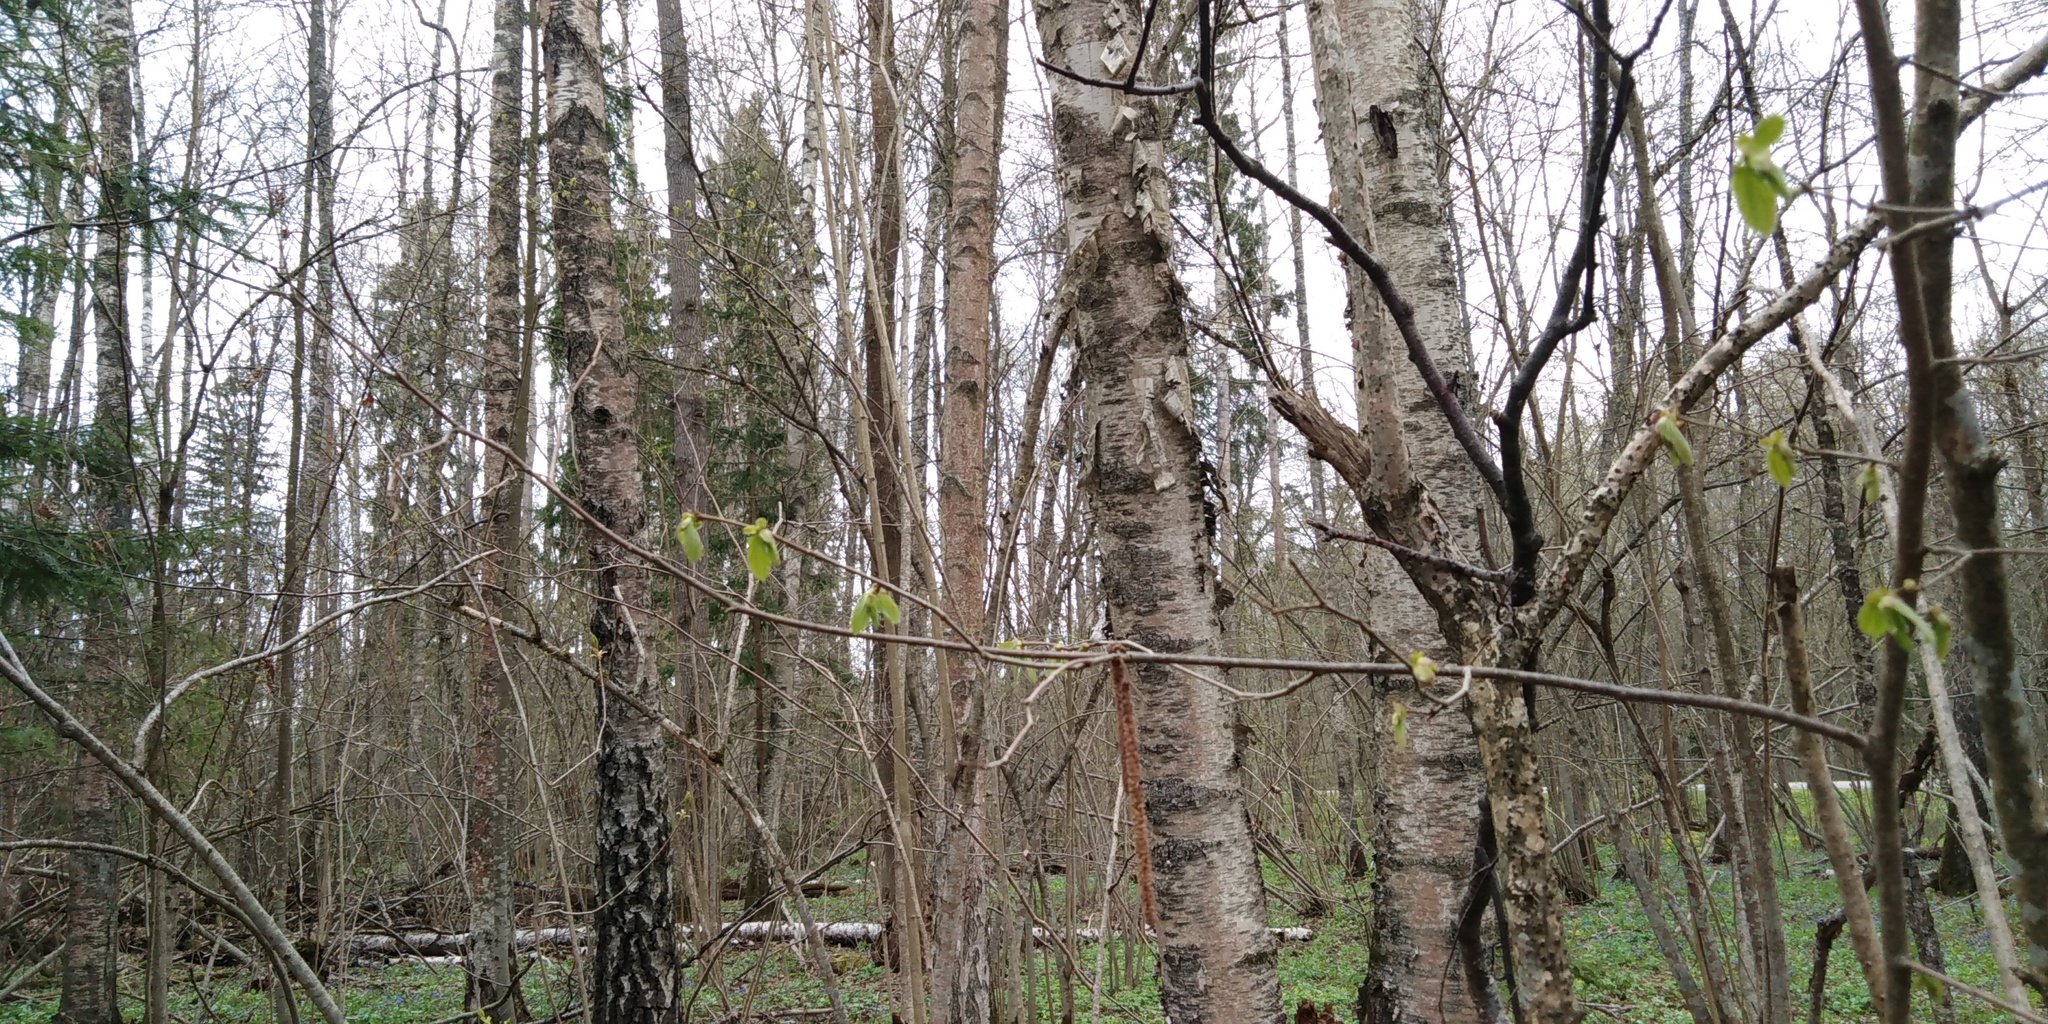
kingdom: Plantae
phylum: Tracheophyta
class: Magnoliopsida
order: Fagales
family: Betulaceae
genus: Corylus
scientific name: Corylus avellana
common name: European hazel
